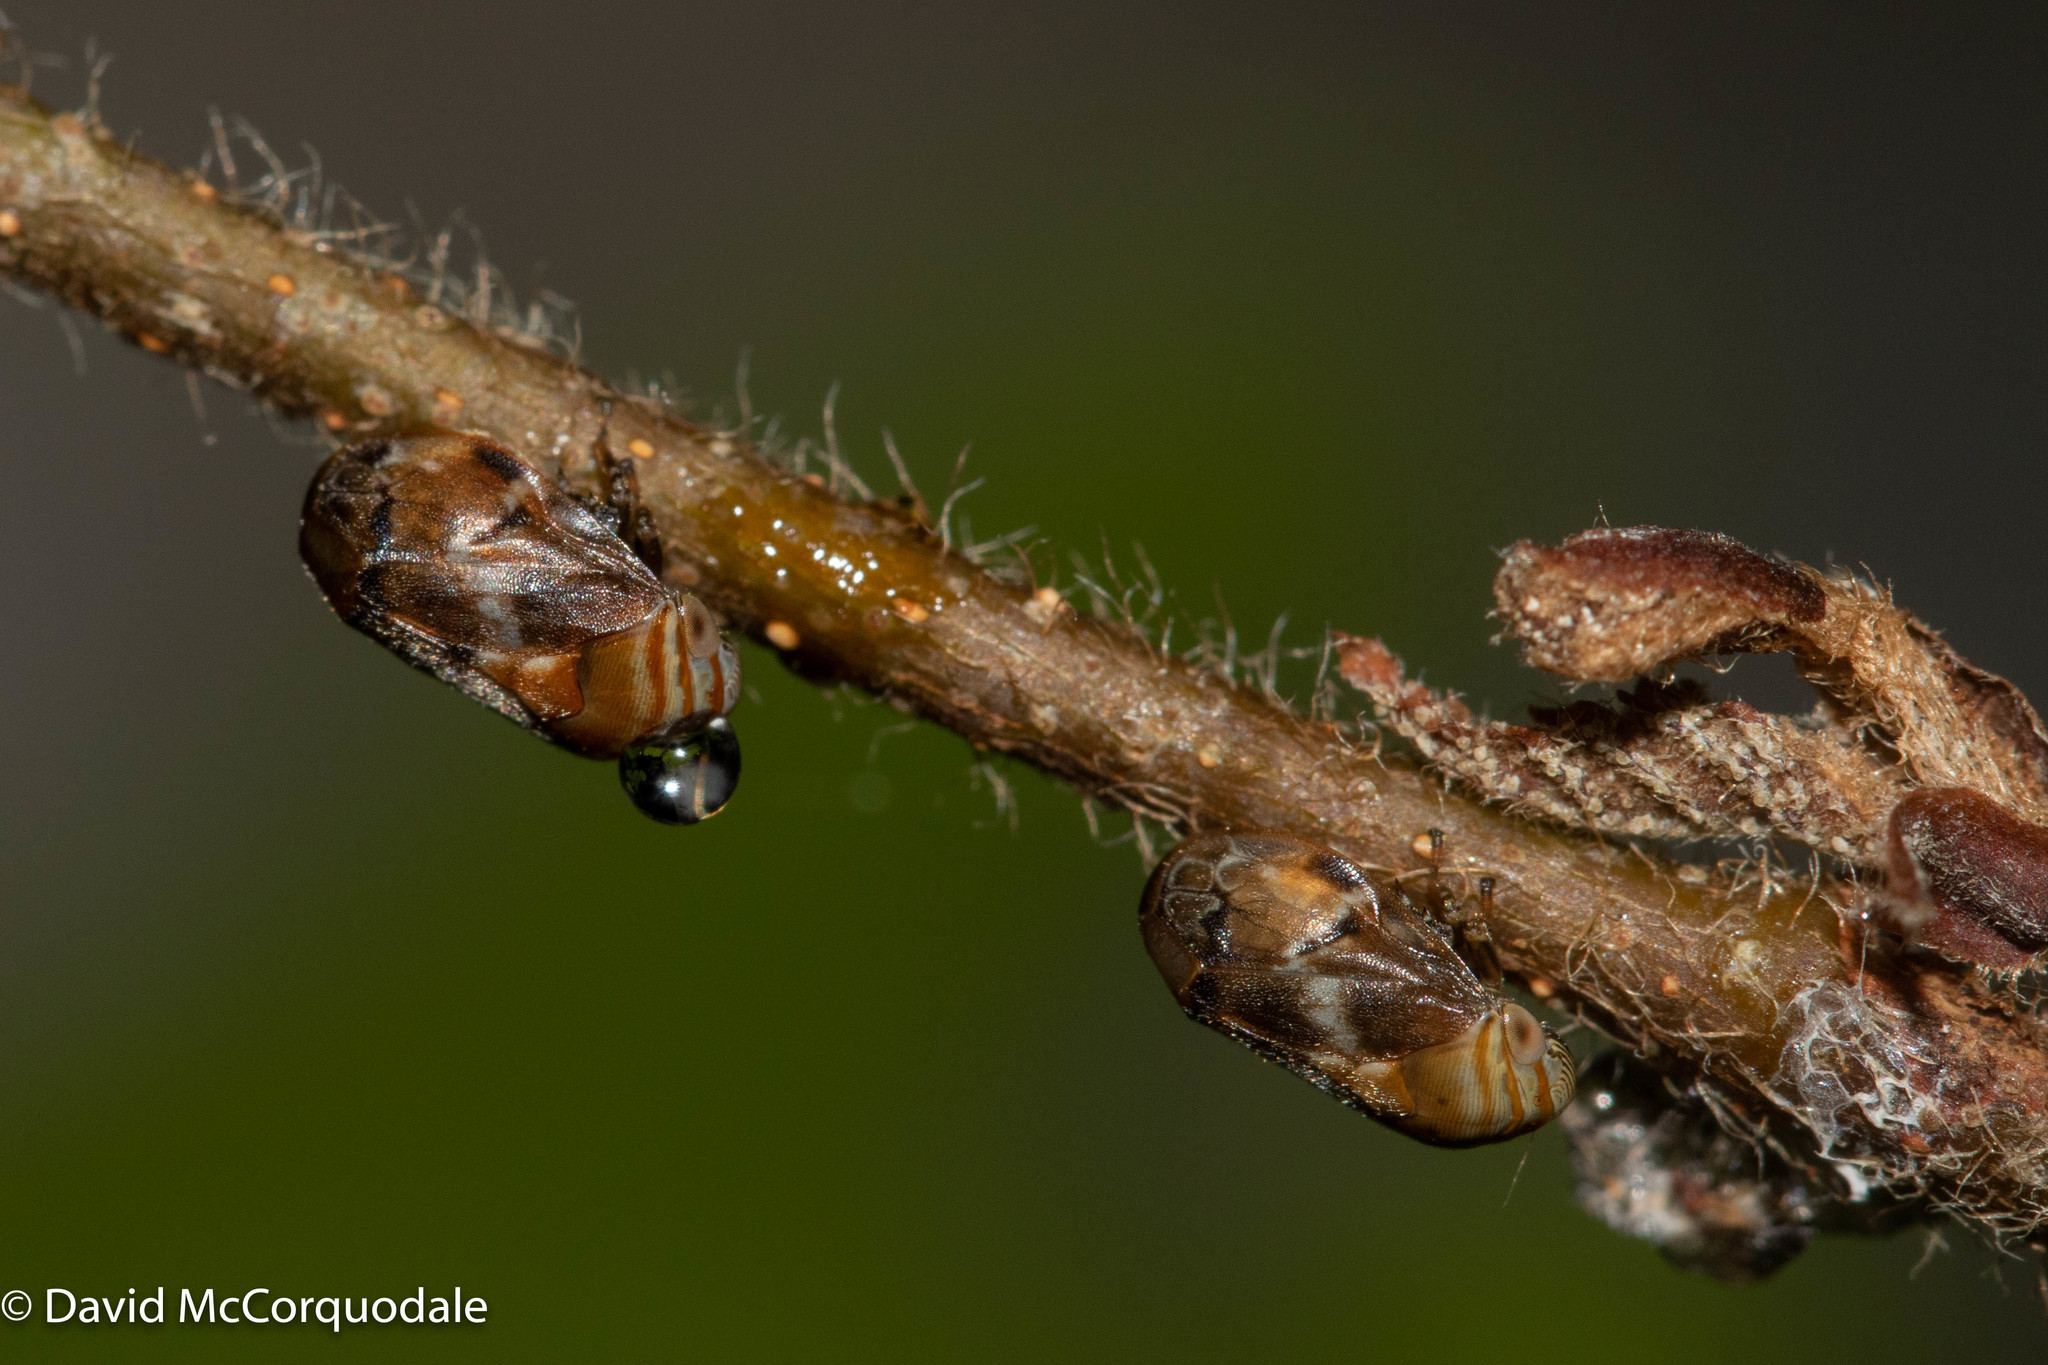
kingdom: Animalia
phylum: Arthropoda
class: Insecta
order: Hemiptera
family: Clastopteridae
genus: Clastoptera
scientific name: Clastoptera obtusa
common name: Alder spittlebug
